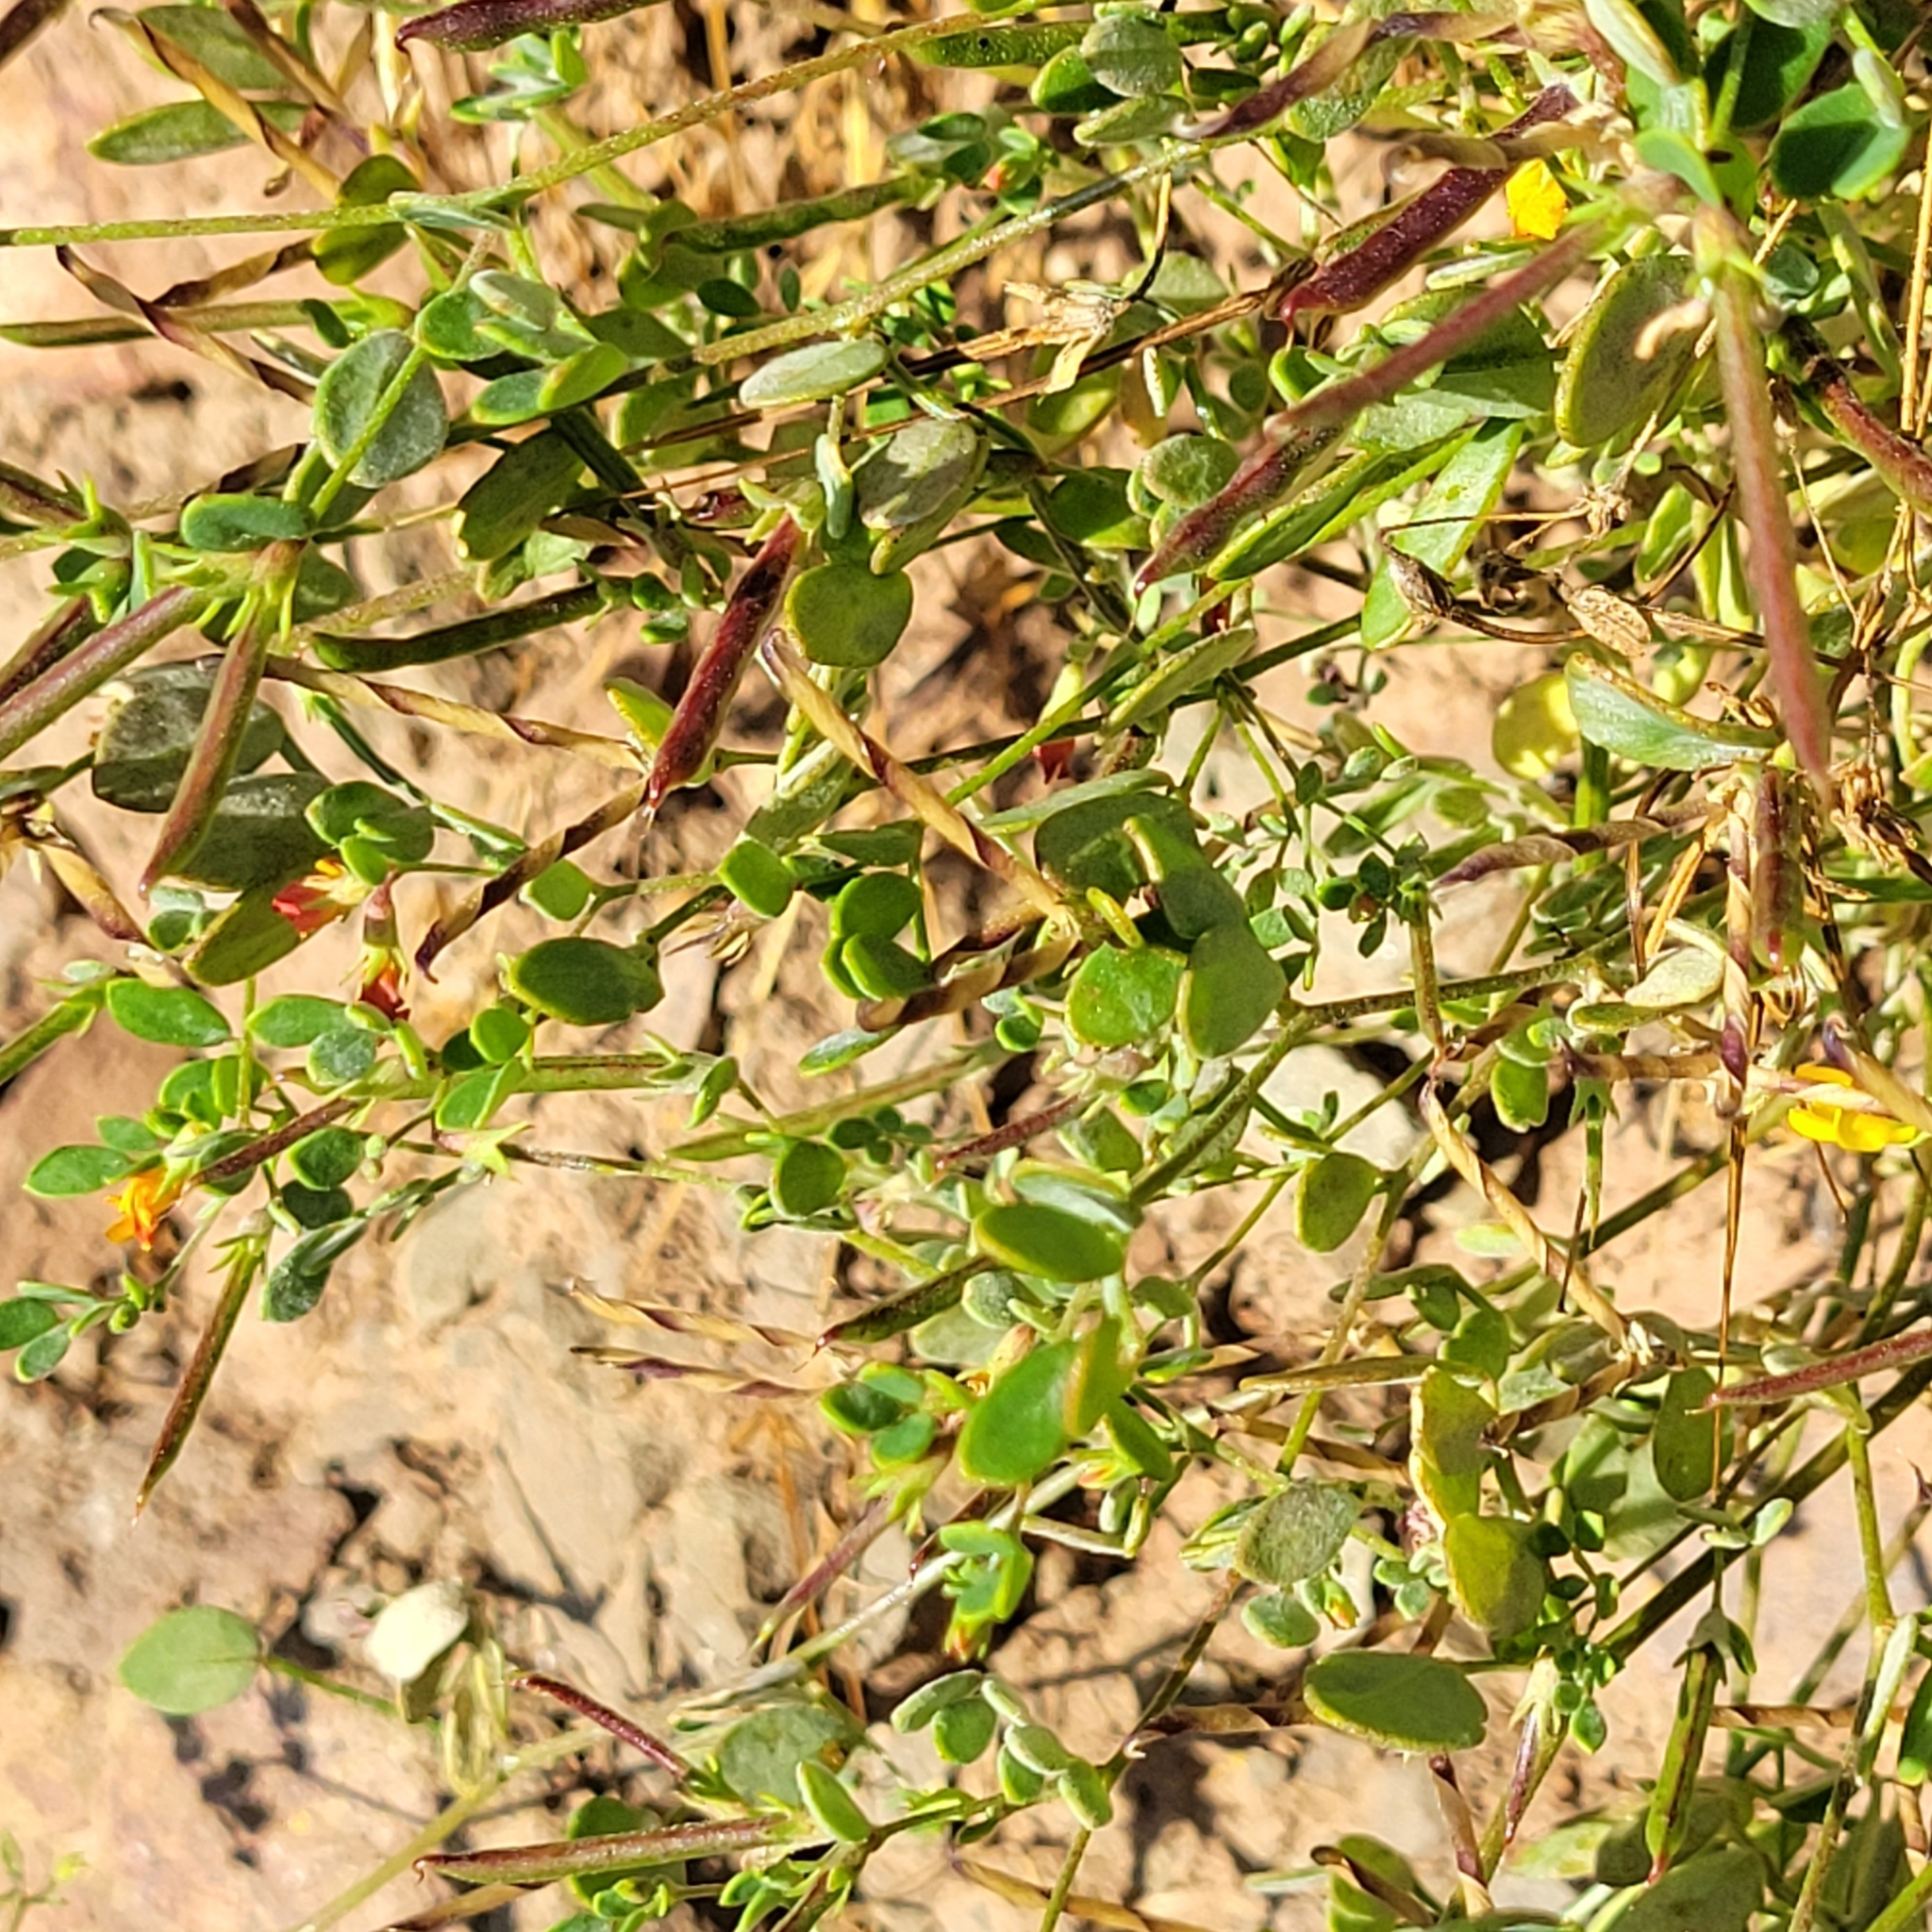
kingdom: Plantae
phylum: Tracheophyta
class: Magnoliopsida
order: Fabales
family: Fabaceae
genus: Acmispon
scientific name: Acmispon maritimus
